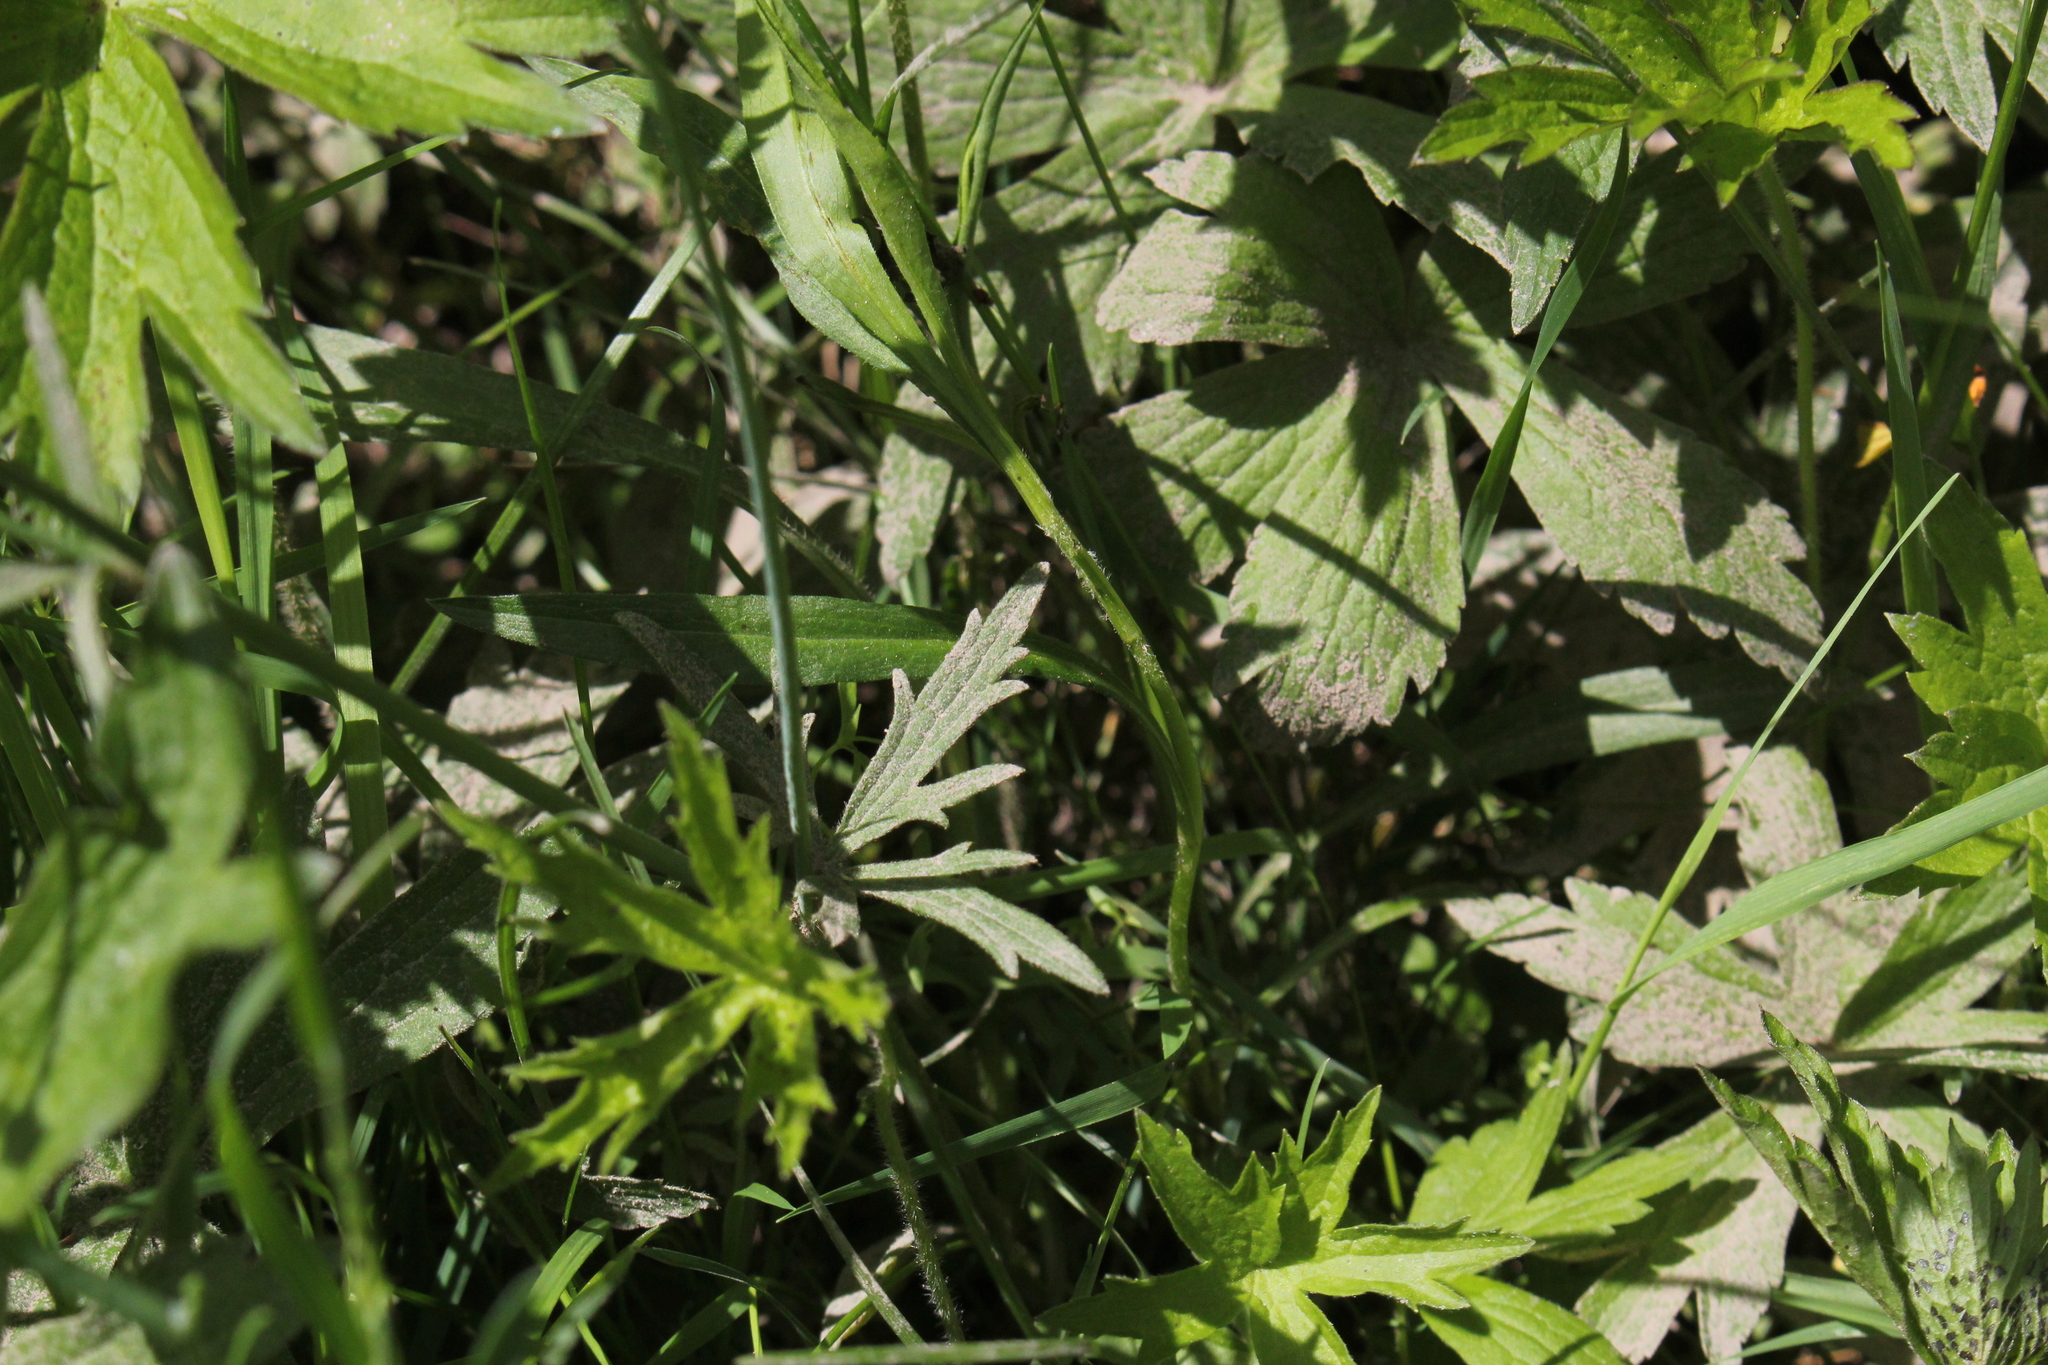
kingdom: Plantae
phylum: Tracheophyta
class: Magnoliopsida
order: Ranunculales
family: Ranunculaceae
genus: Ranunculus
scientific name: Ranunculus acris
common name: Meadow buttercup
